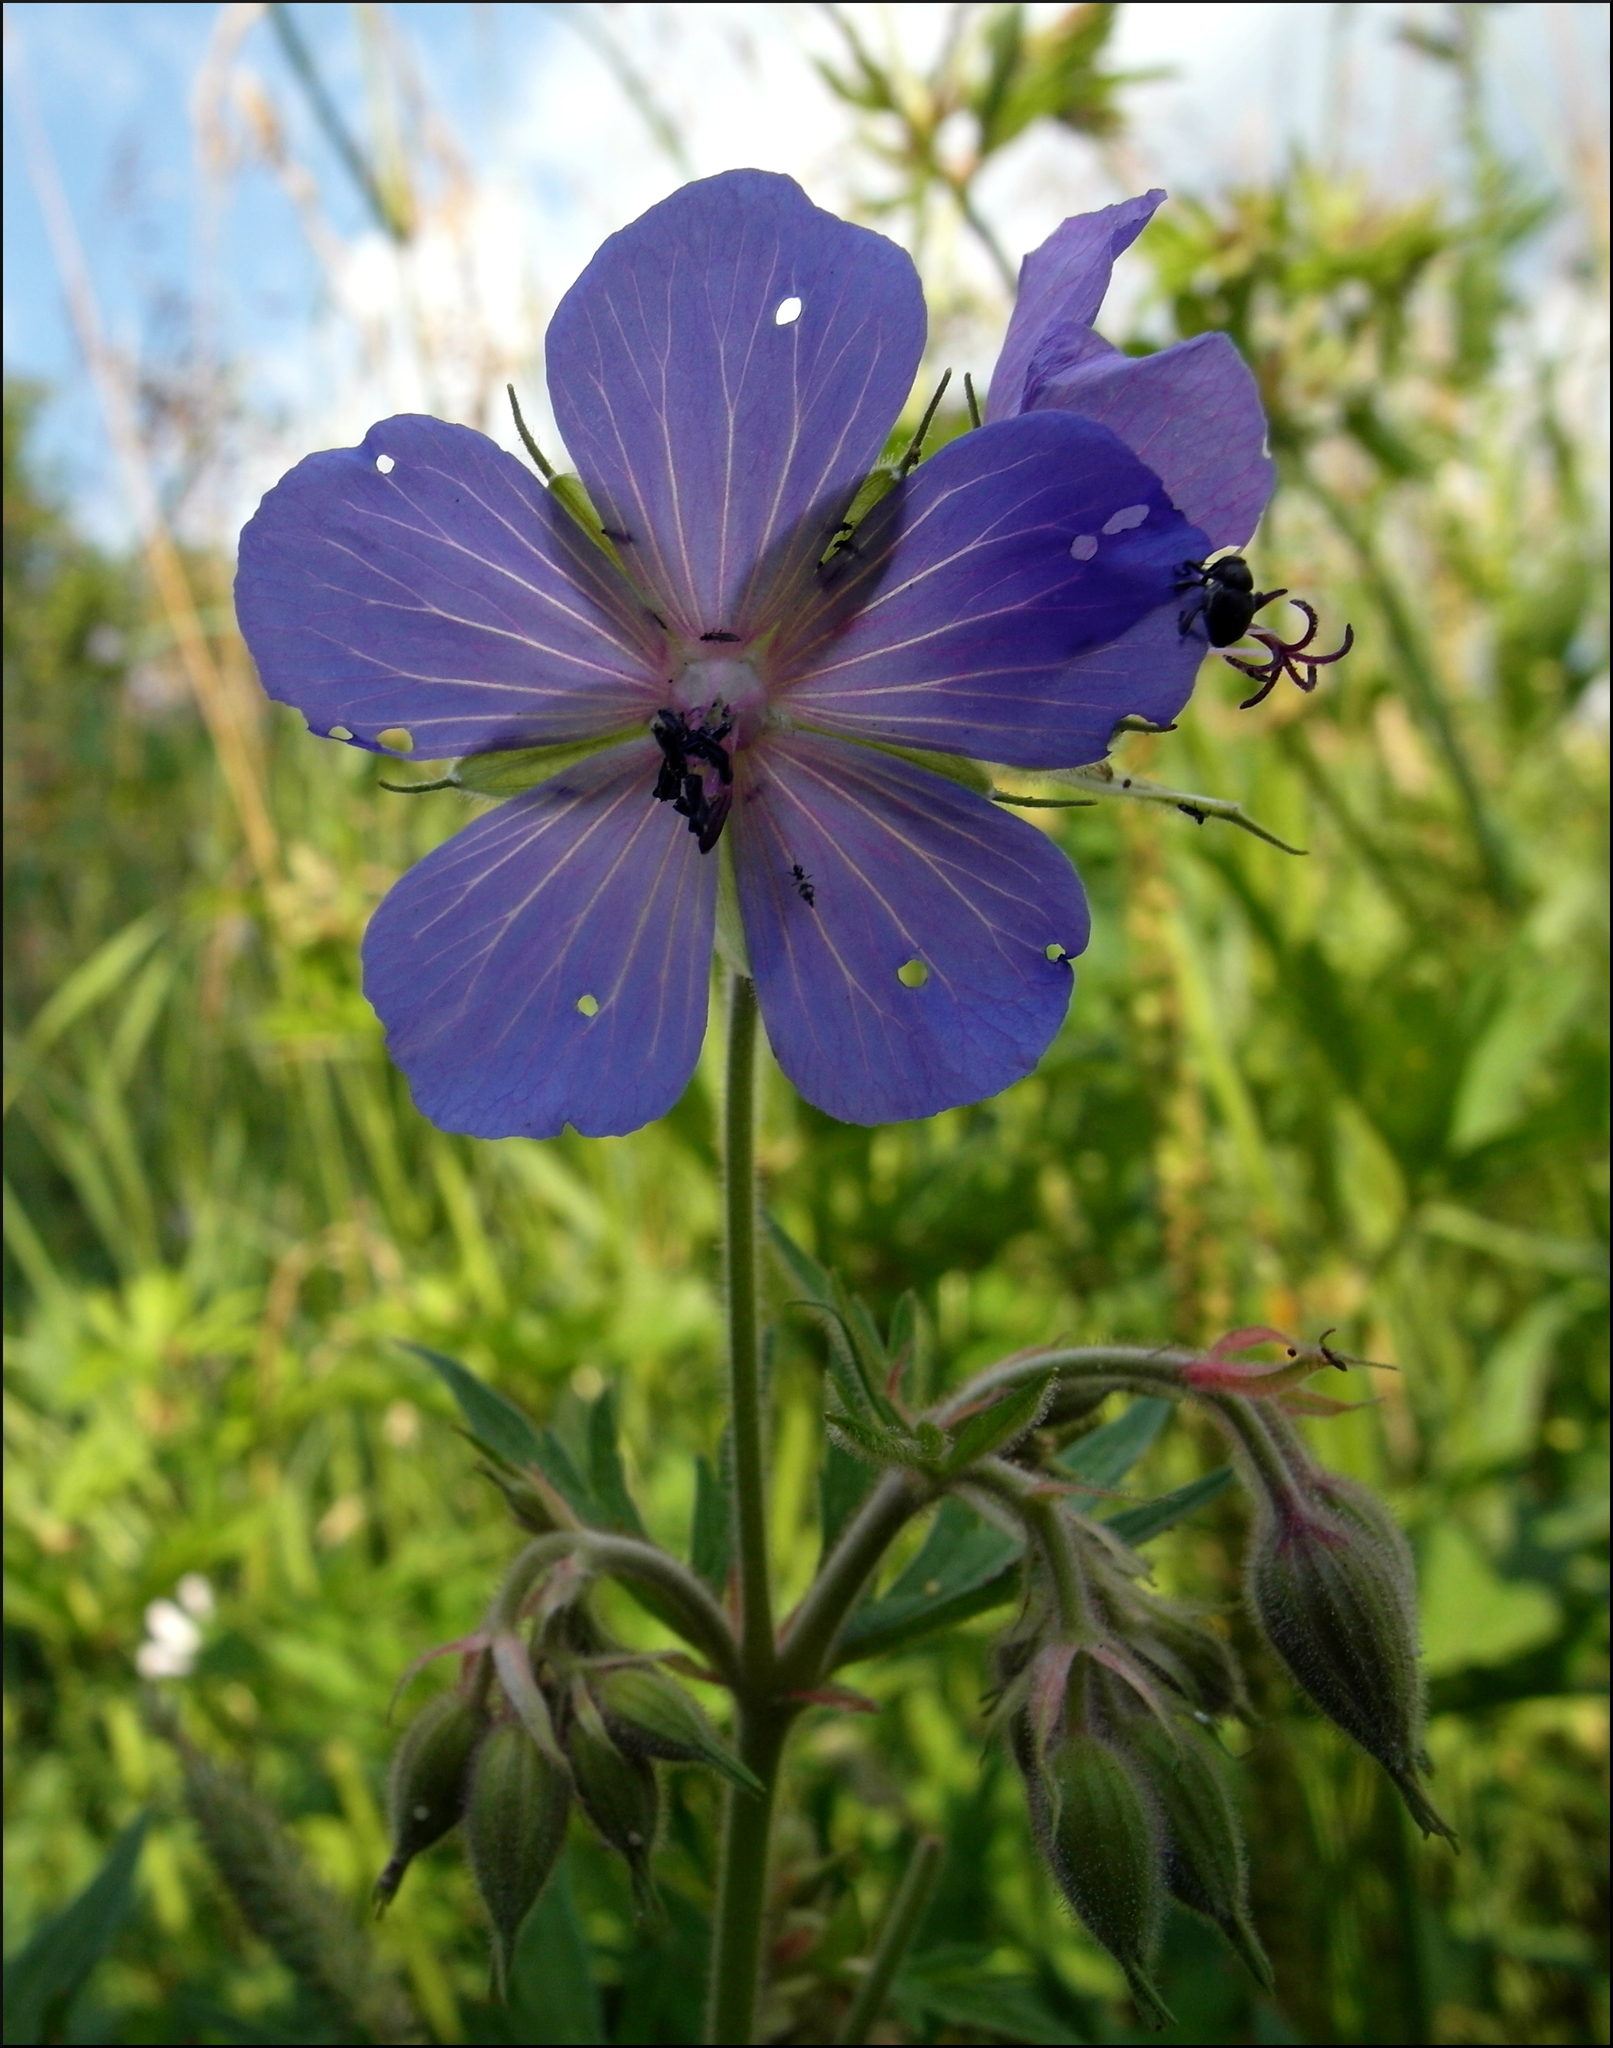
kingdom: Plantae
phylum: Tracheophyta
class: Magnoliopsida
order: Geraniales
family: Geraniaceae
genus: Geranium
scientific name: Geranium pratense
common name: Meadow crane's-bill
